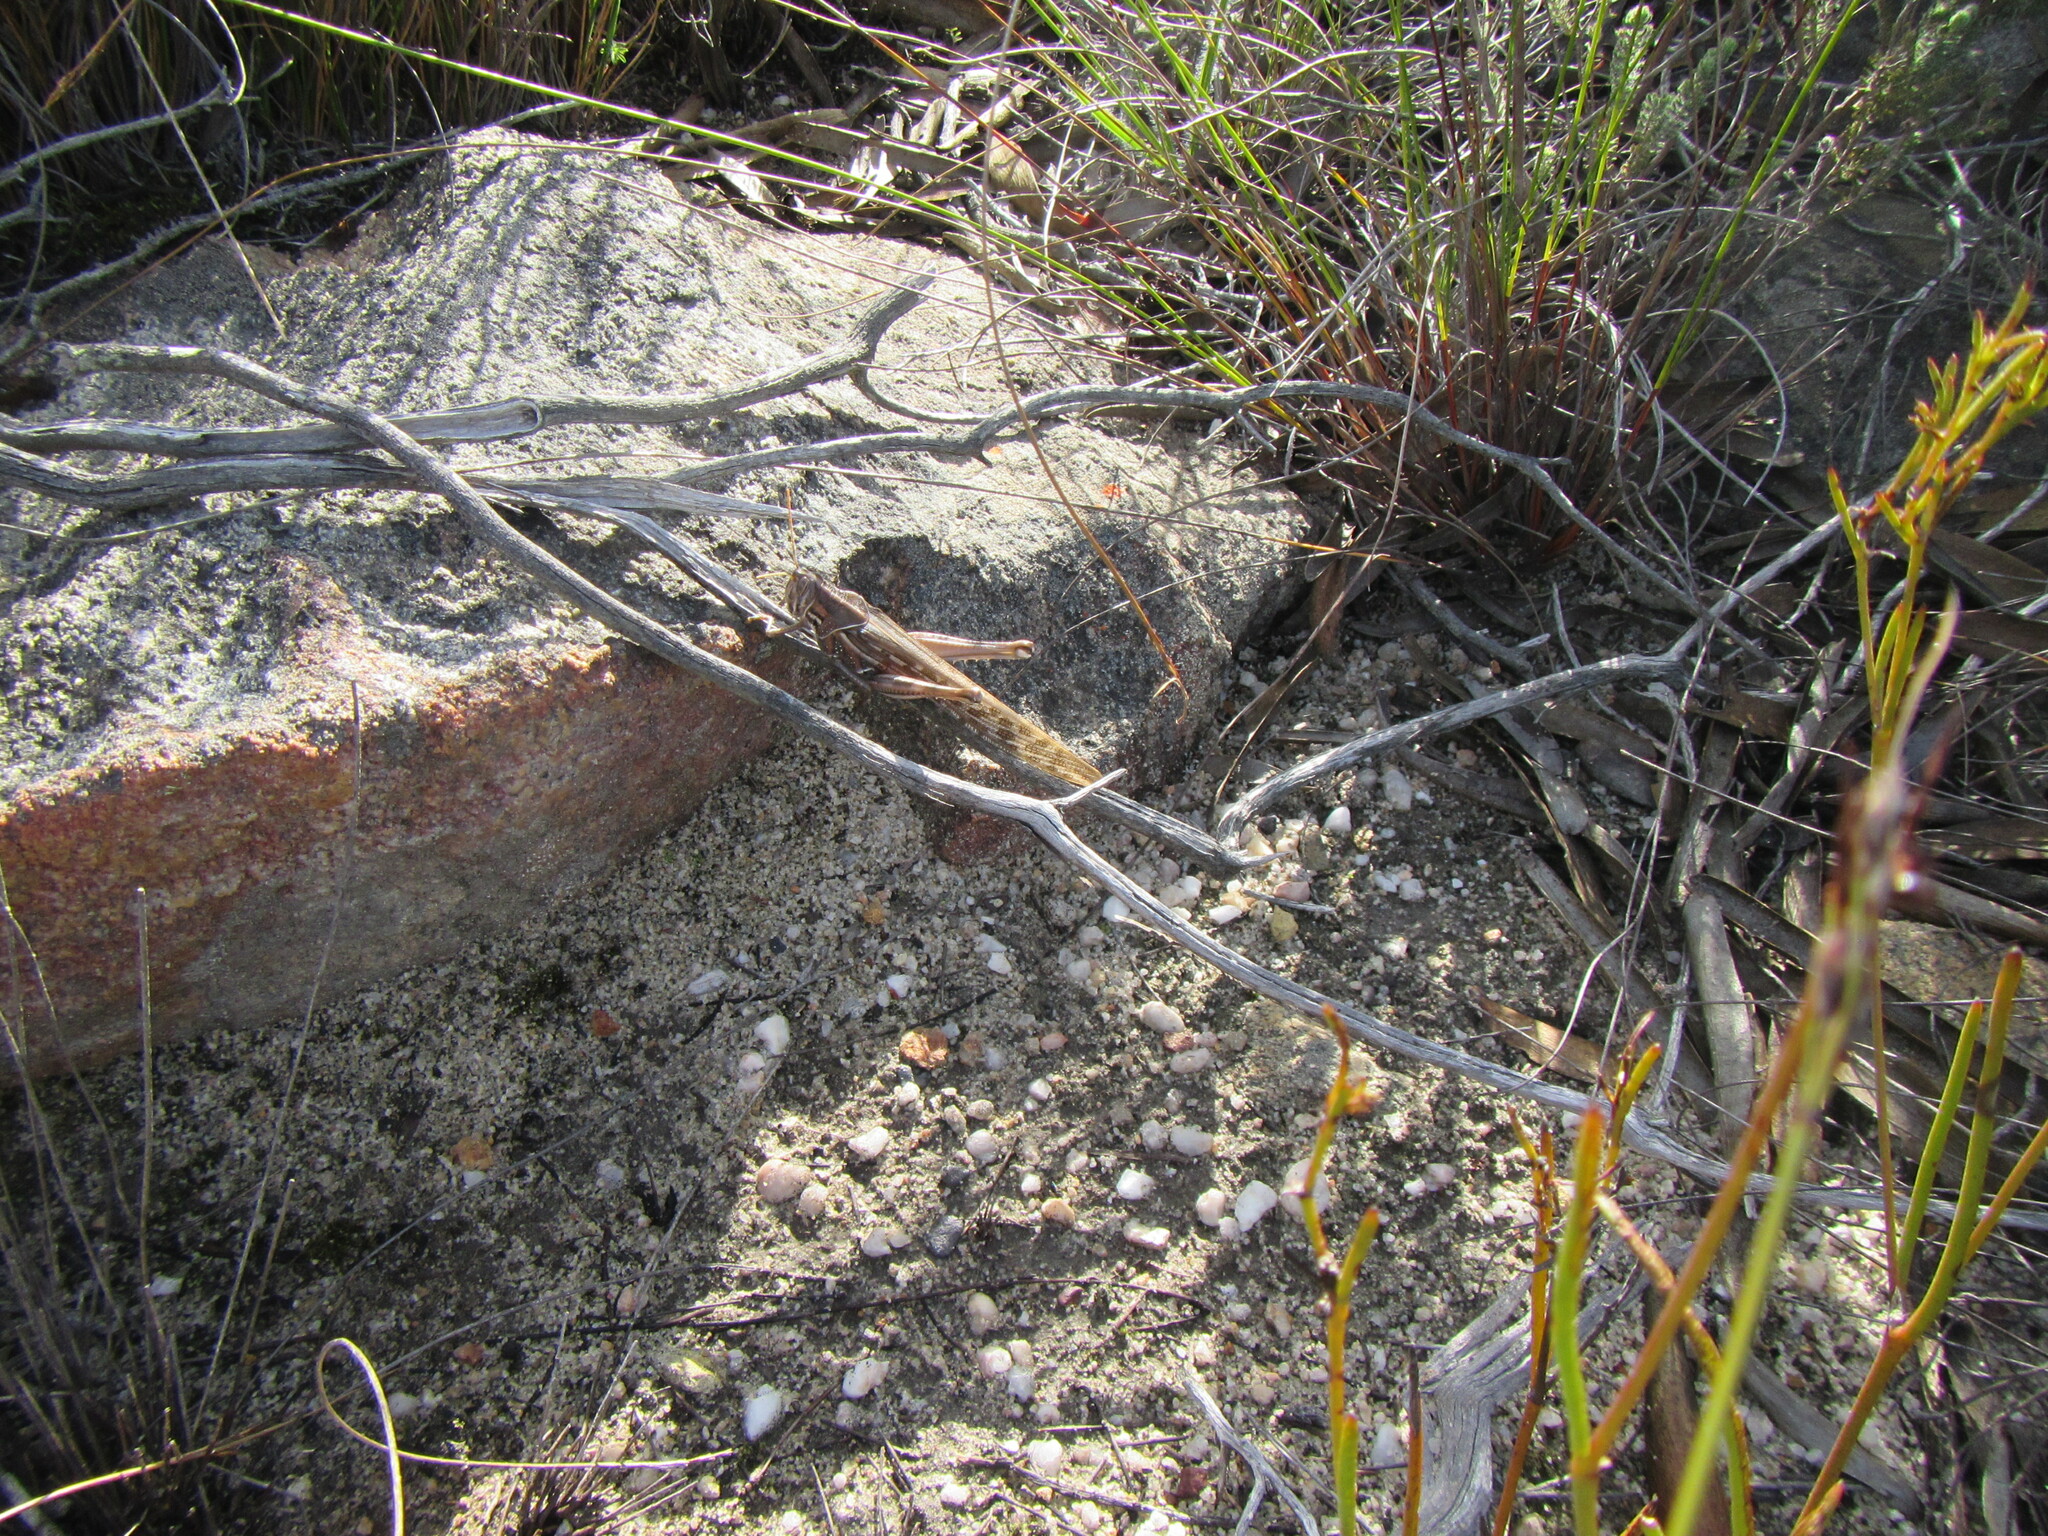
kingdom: Animalia
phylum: Arthropoda
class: Insecta
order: Orthoptera
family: Acrididae
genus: Schistocerca
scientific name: Schistocerca gregaria
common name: Desert locust
